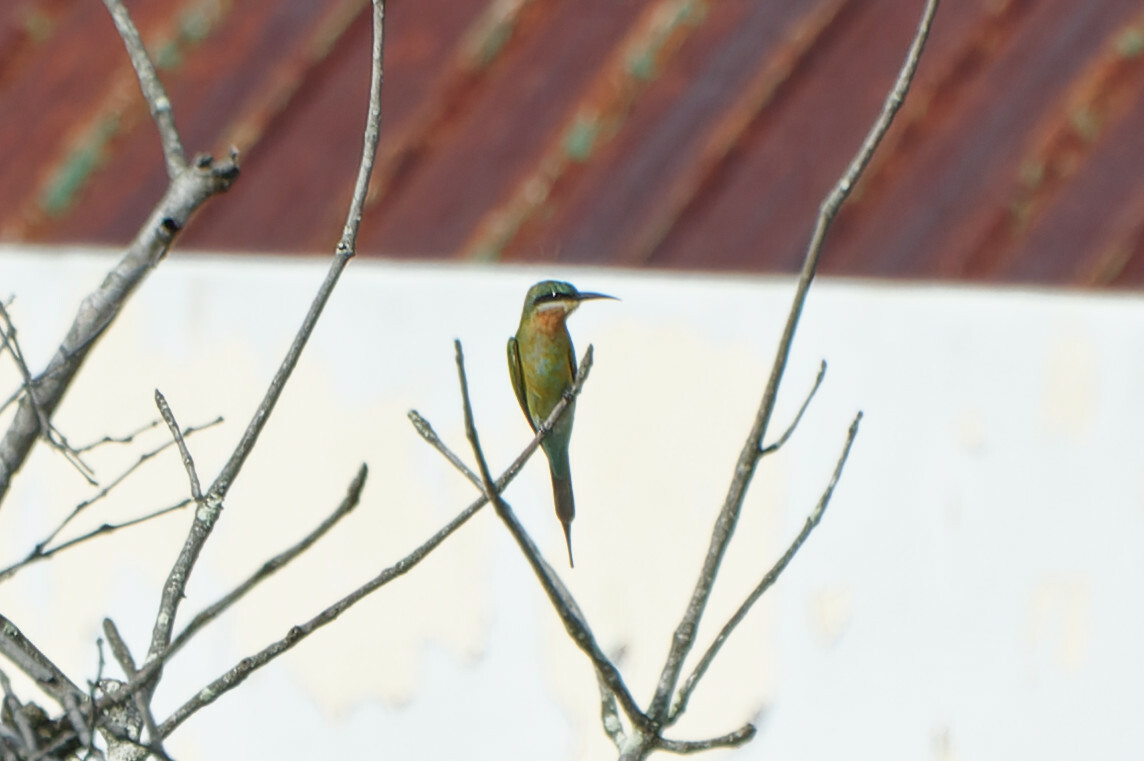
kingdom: Animalia
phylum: Chordata
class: Aves
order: Coraciiformes
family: Meropidae
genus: Merops
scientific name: Merops philippinus
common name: Blue-tailed bee-eater
